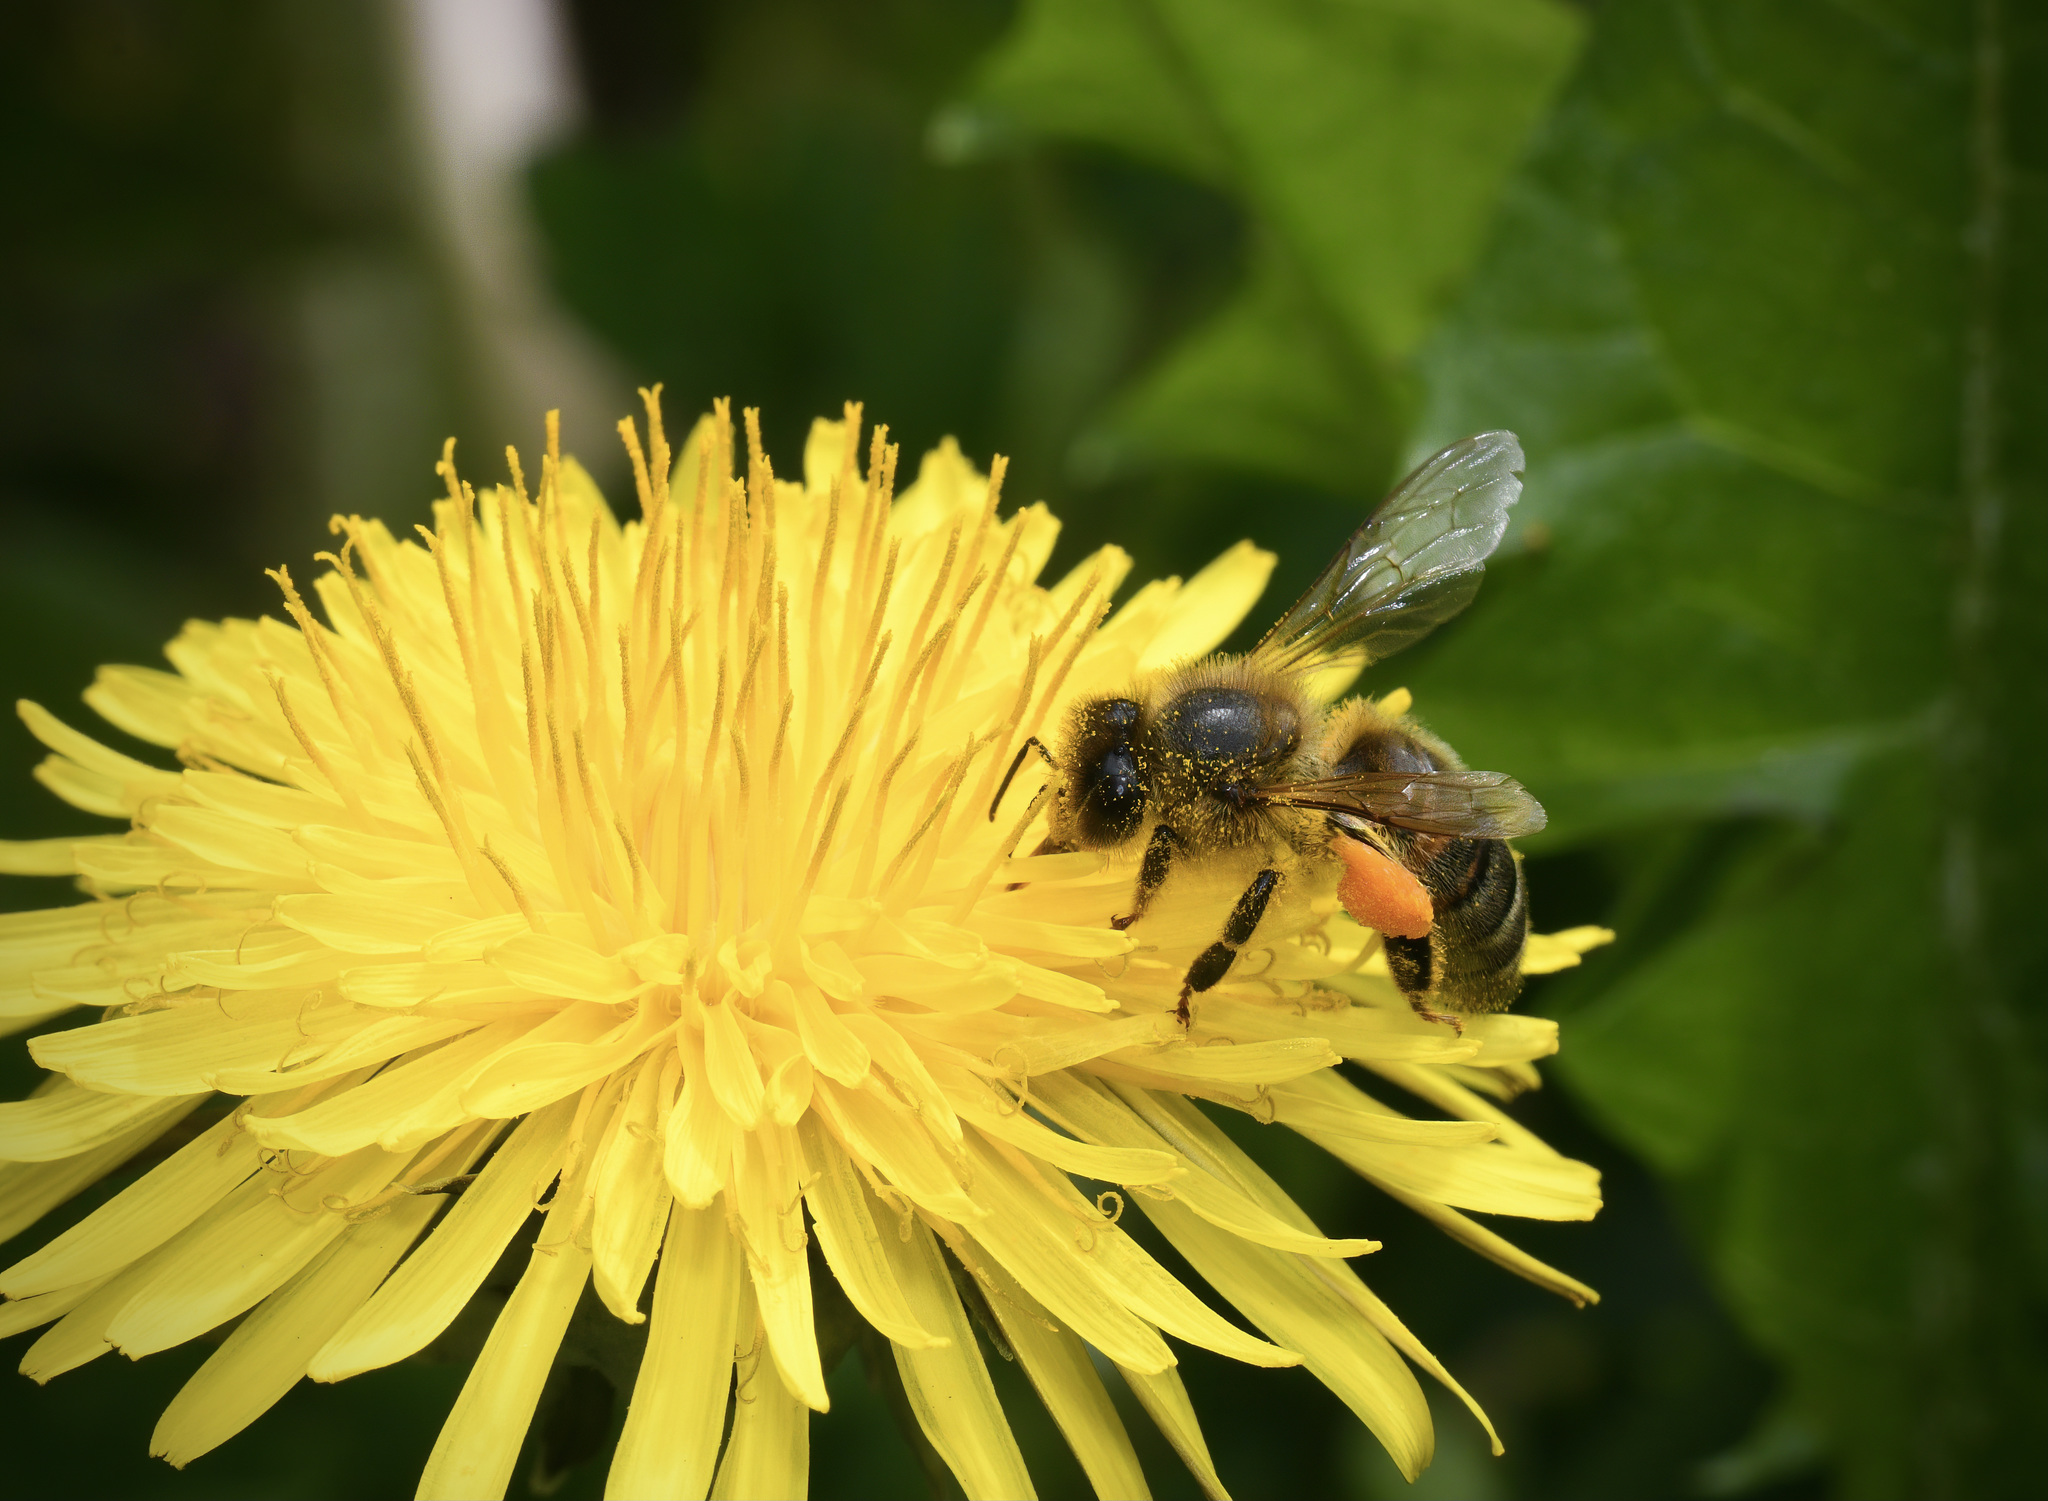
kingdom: Animalia
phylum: Arthropoda
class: Insecta
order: Hymenoptera
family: Apidae
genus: Apis
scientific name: Apis mellifera
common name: Honey bee
